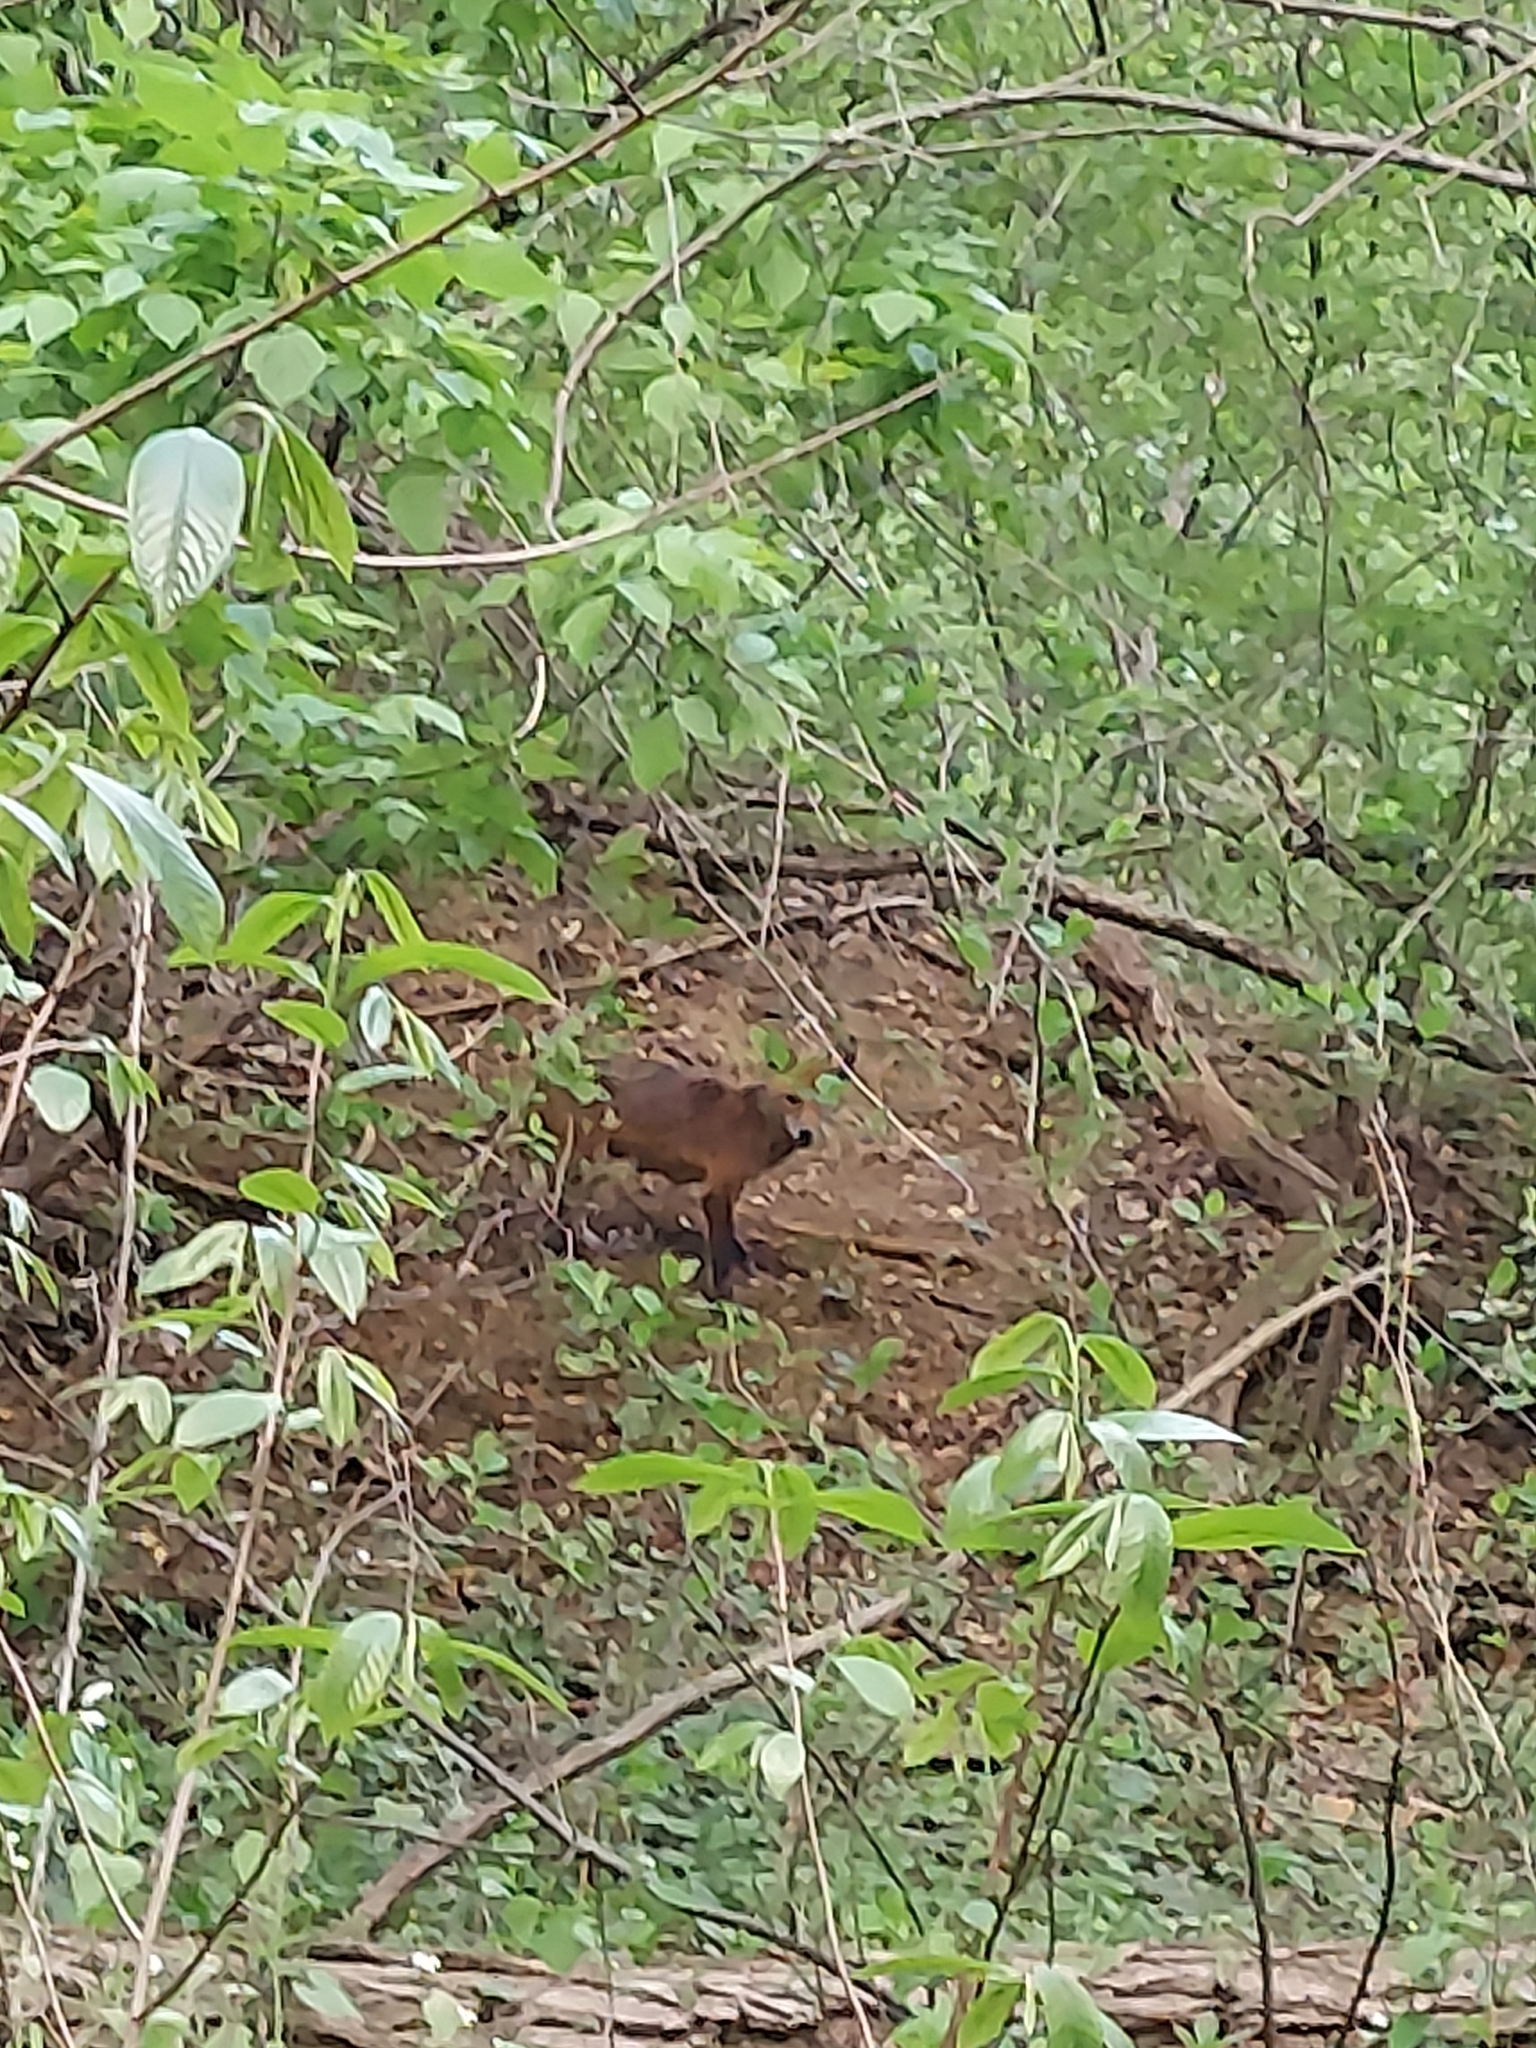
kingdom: Animalia
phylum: Chordata
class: Mammalia
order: Carnivora
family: Canidae
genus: Vulpes
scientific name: Vulpes vulpes
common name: Red fox
